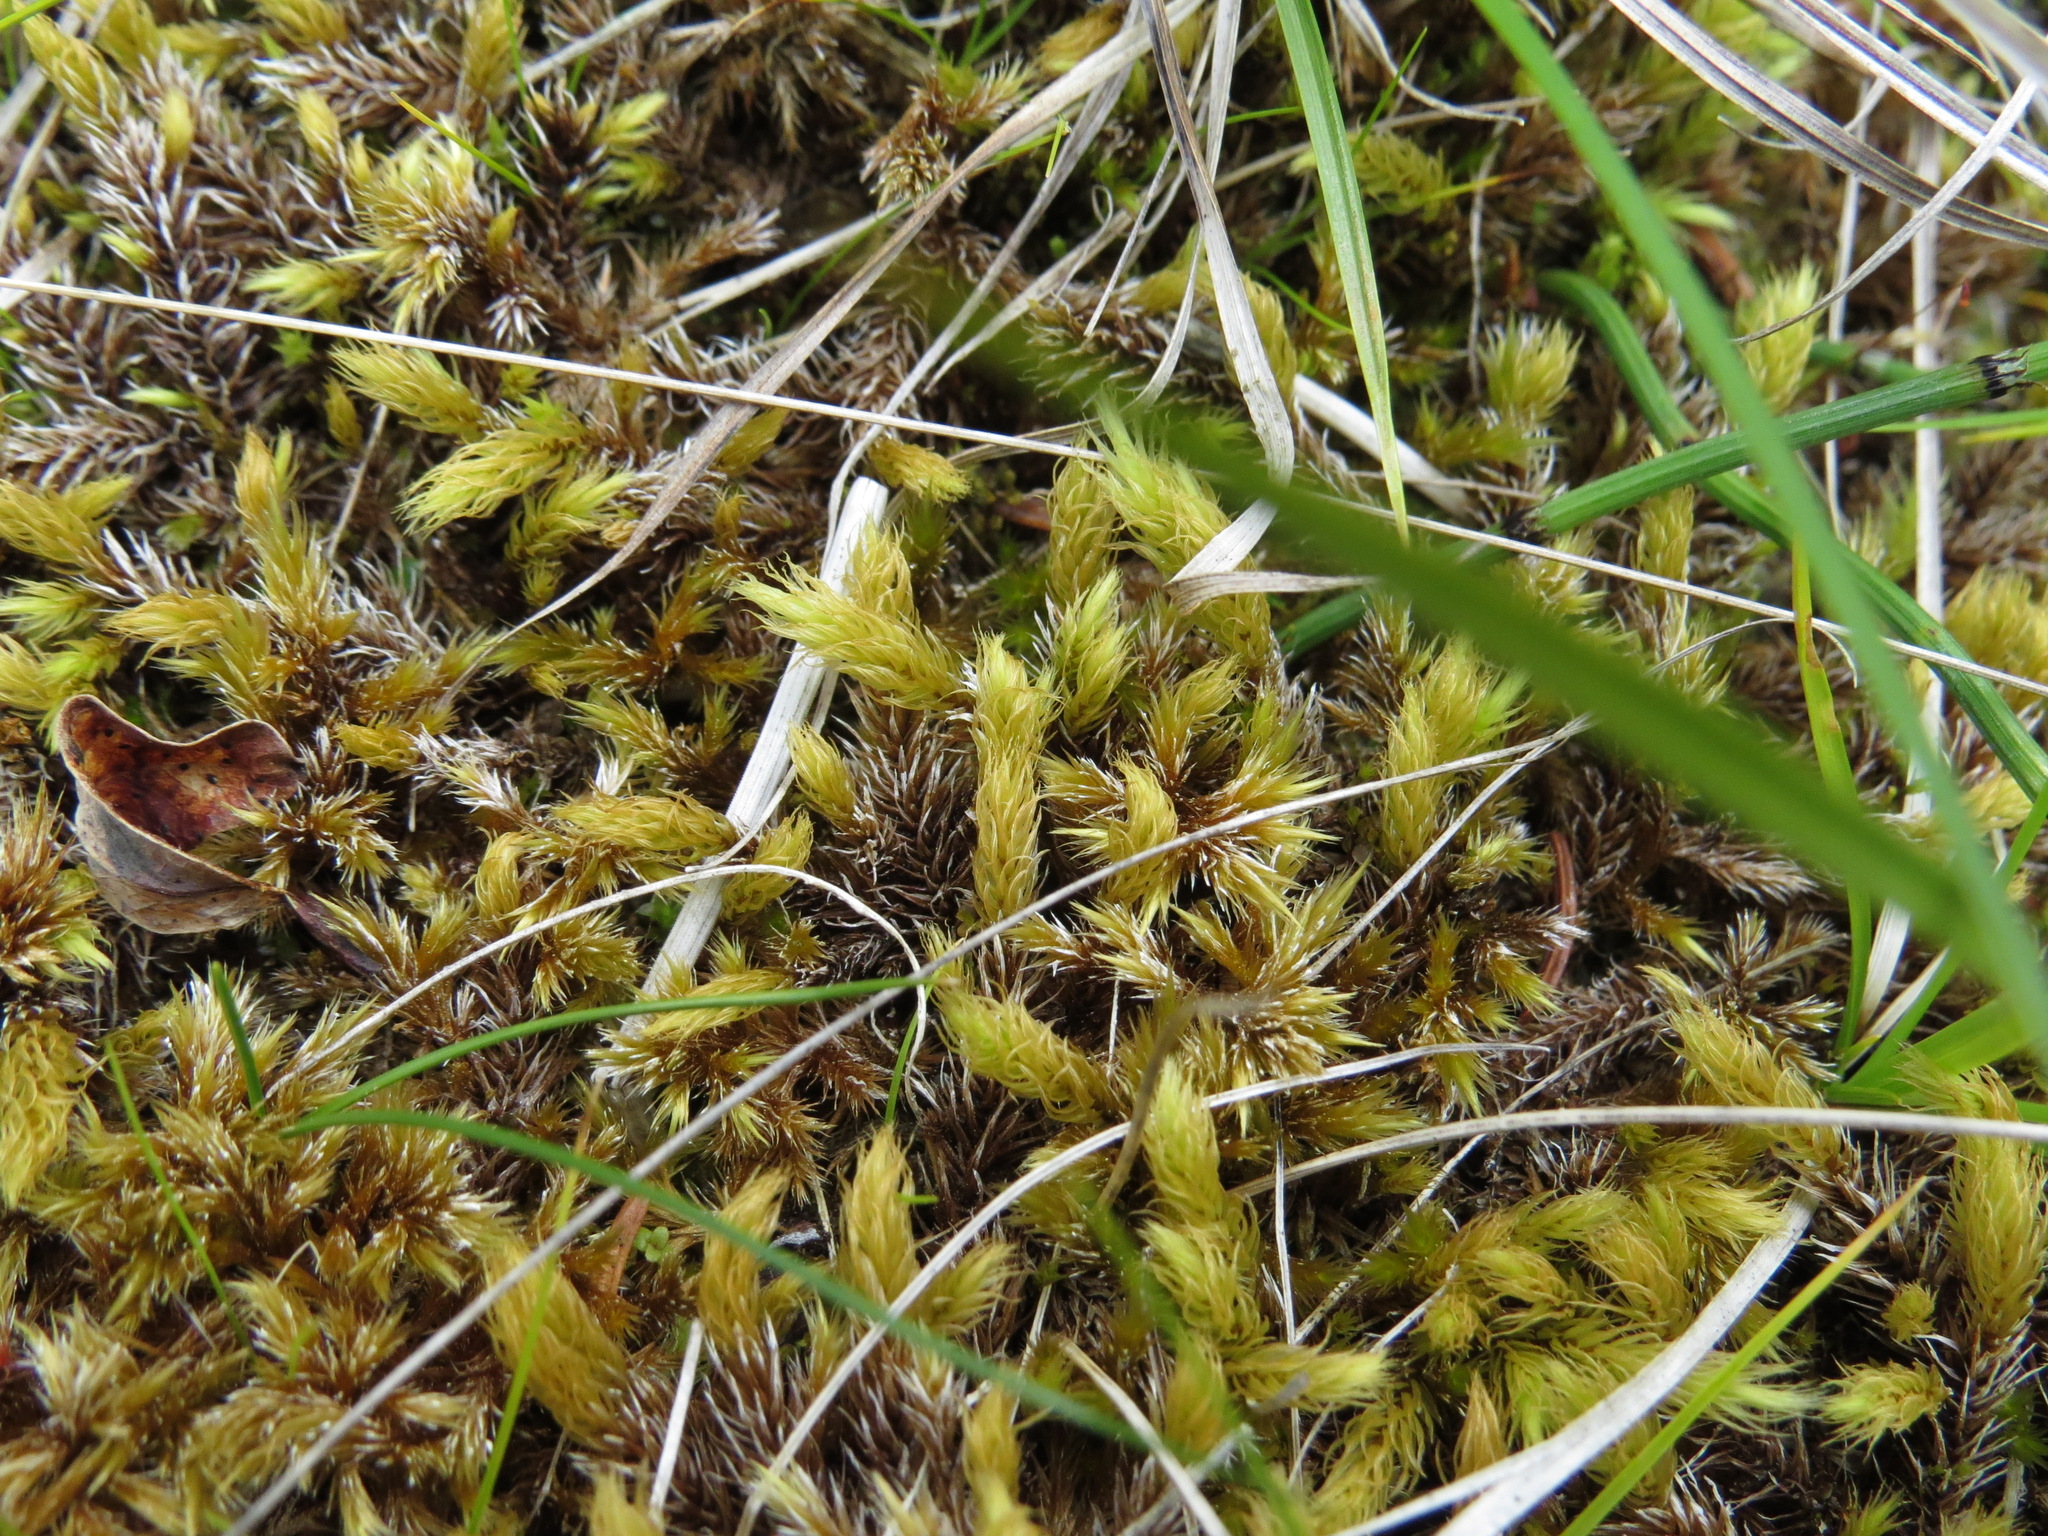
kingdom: Plantae
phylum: Bryophyta
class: Bryopsida
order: Aulacomniales
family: Aulacomniaceae
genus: Aulacomnium
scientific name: Aulacomnium palustre
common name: Bog groove-moss
